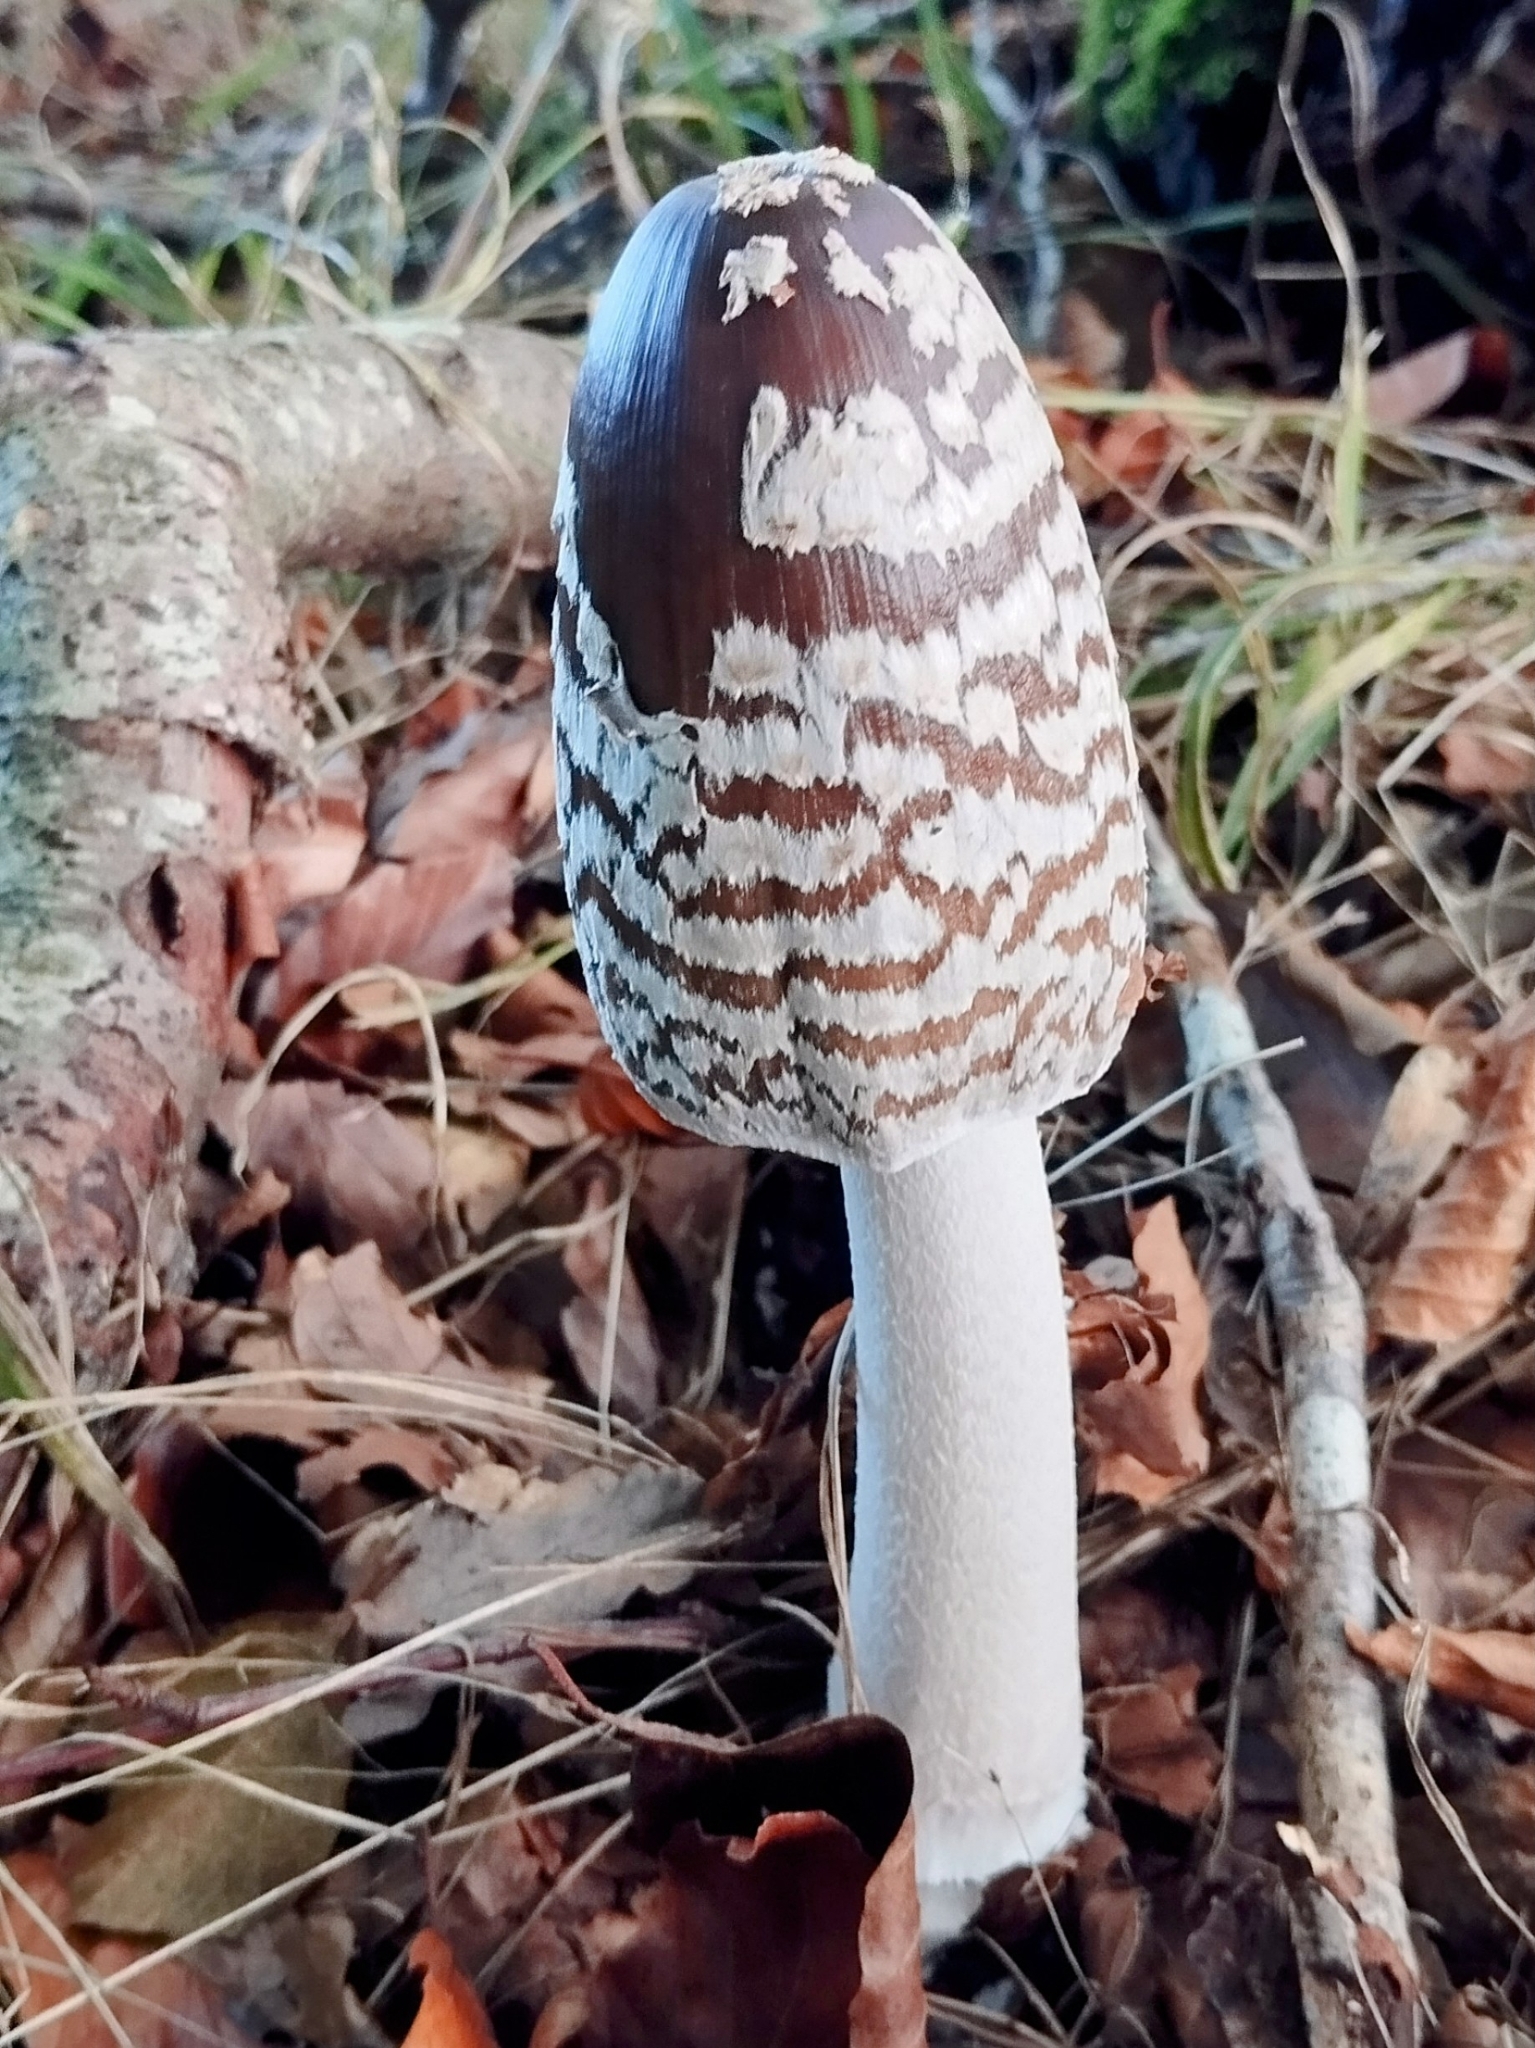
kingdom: Fungi
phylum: Basidiomycota
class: Agaricomycetes
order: Agaricales
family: Psathyrellaceae
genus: Coprinopsis
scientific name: Coprinopsis picacea
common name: Magpie inkcap
